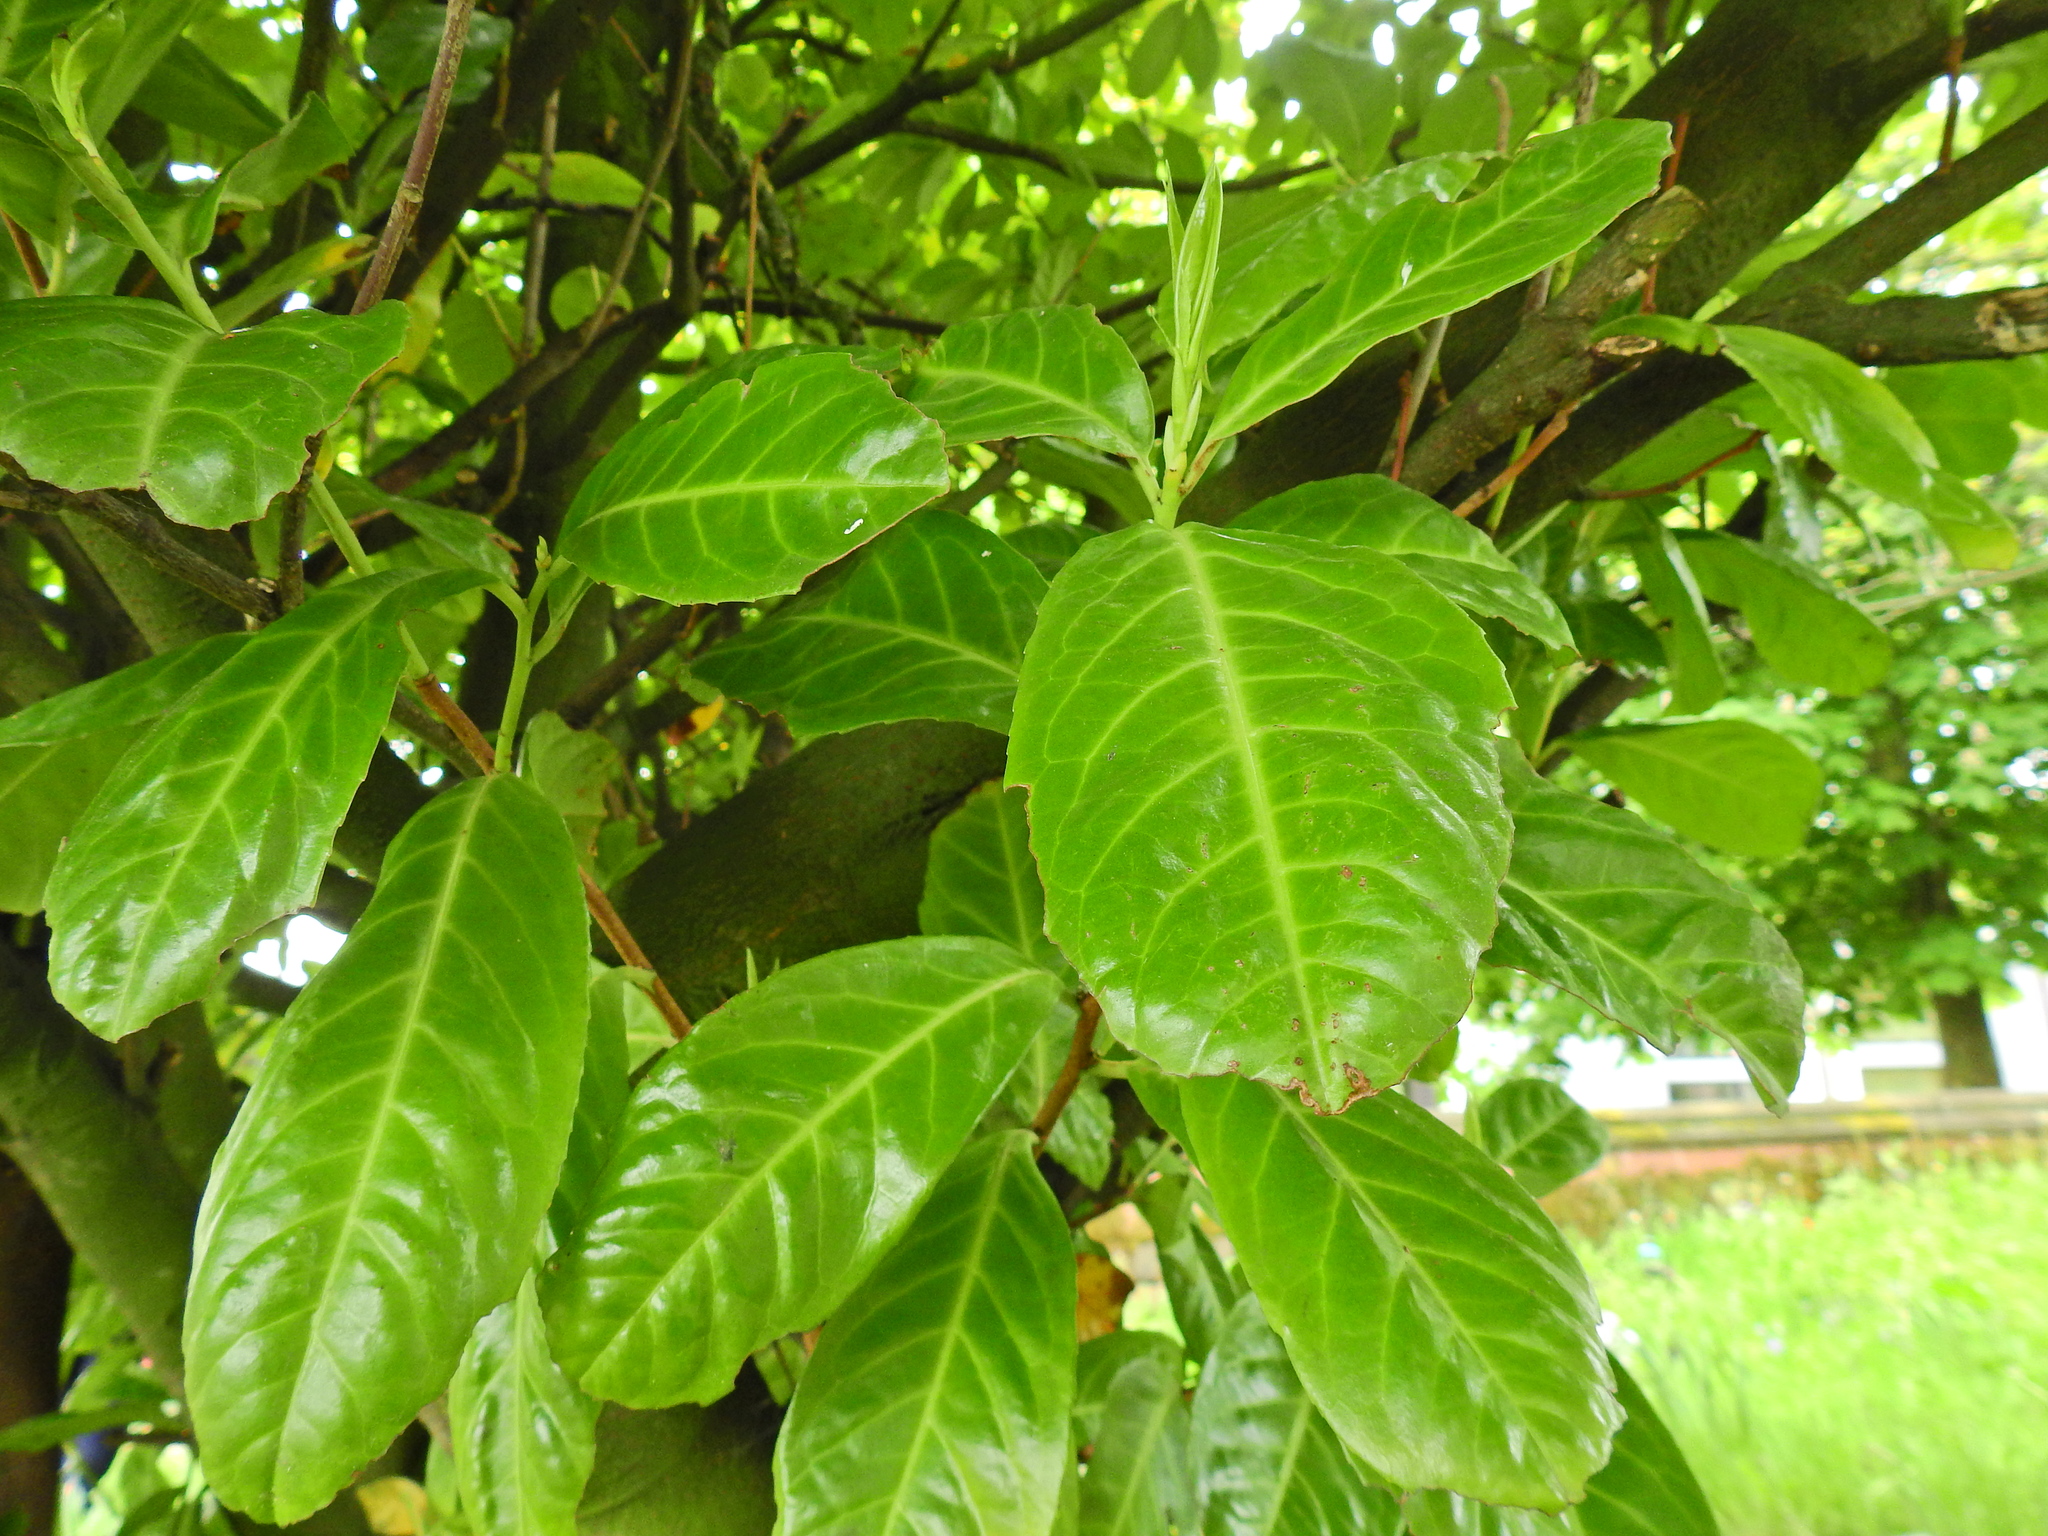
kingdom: Plantae
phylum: Tracheophyta
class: Magnoliopsida
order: Rosales
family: Rosaceae
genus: Prunus
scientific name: Prunus laurocerasus
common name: Cherry laurel
